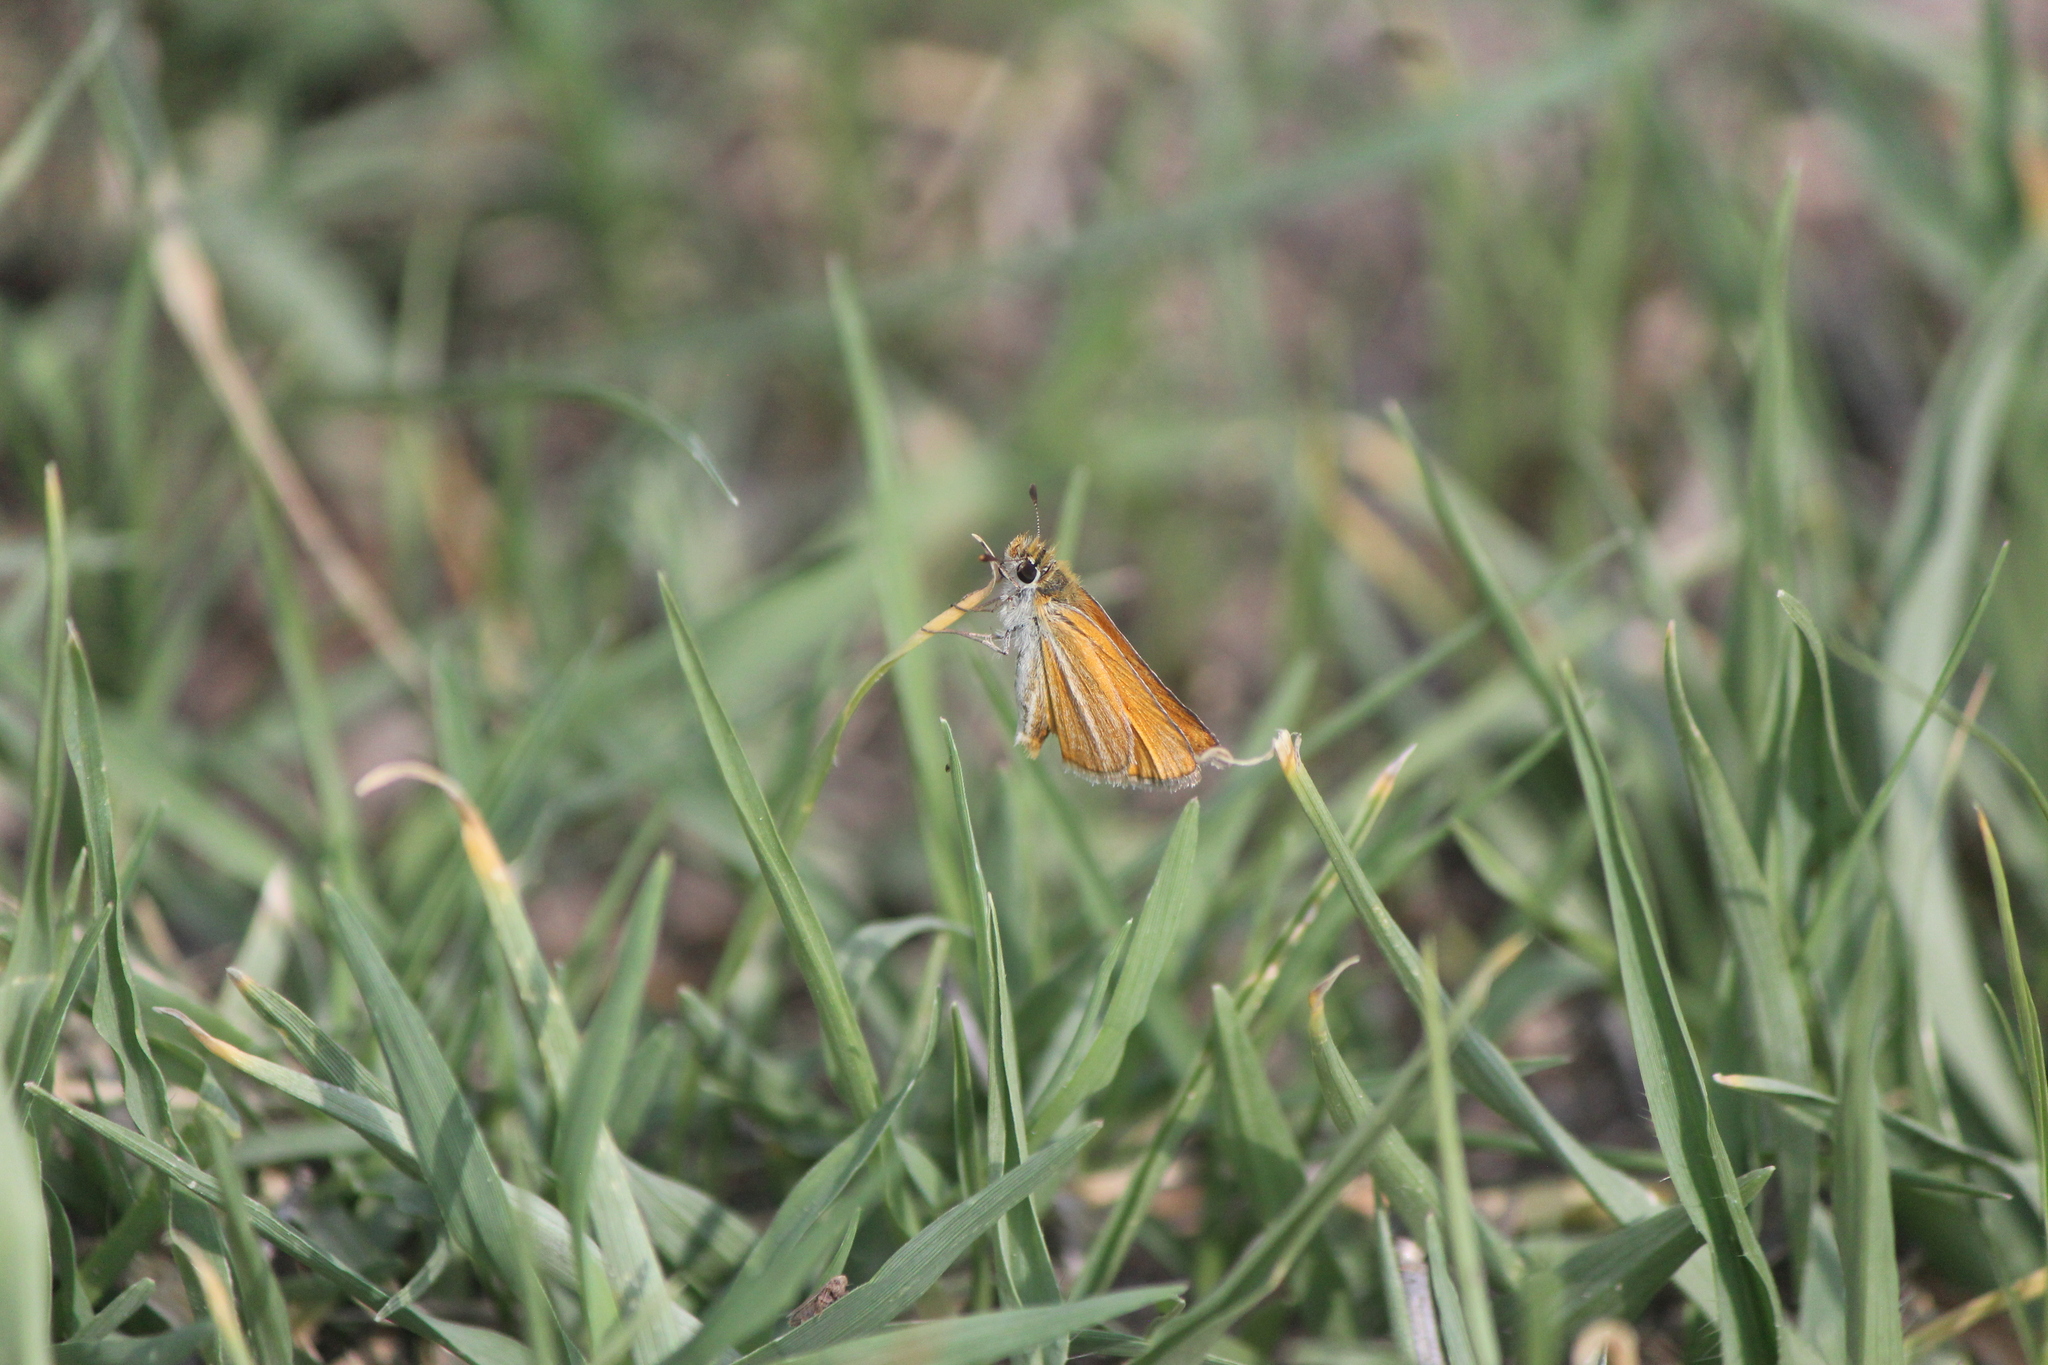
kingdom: Animalia
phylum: Arthropoda
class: Insecta
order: Lepidoptera
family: Hesperiidae
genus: Copaeodes
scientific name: Copaeodes minima
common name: Southern skipperling
